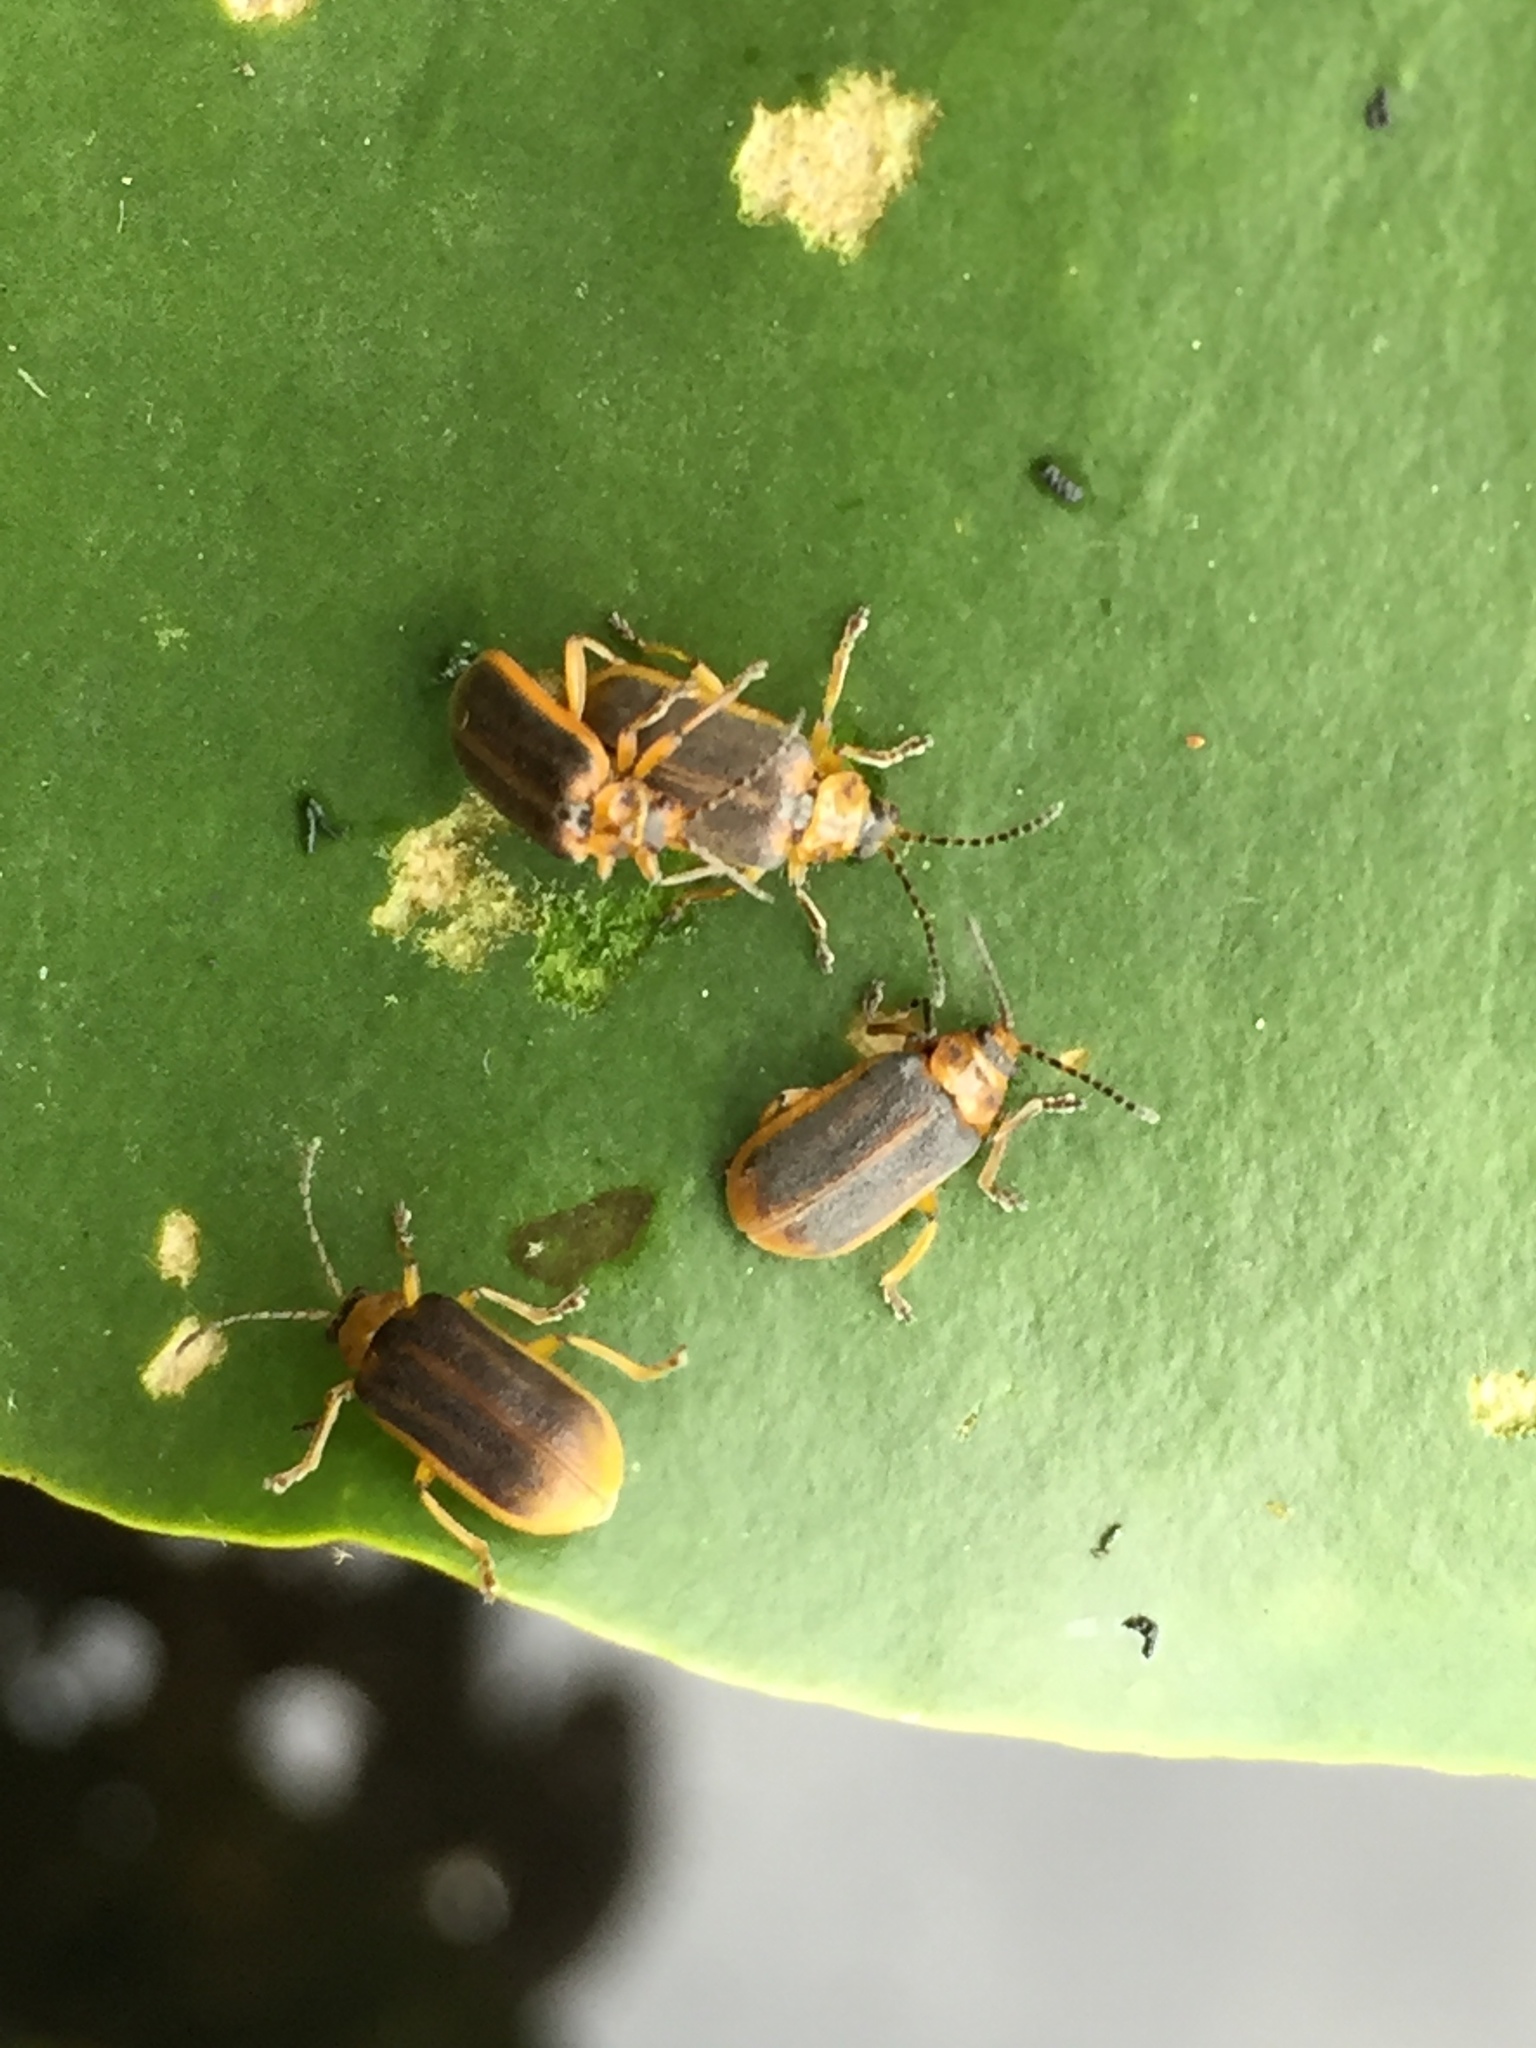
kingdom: Animalia
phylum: Arthropoda
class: Insecta
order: Coleoptera
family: Chrysomelidae
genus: Galerucella
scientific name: Galerucella nymphaeae
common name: Leaf beetle
